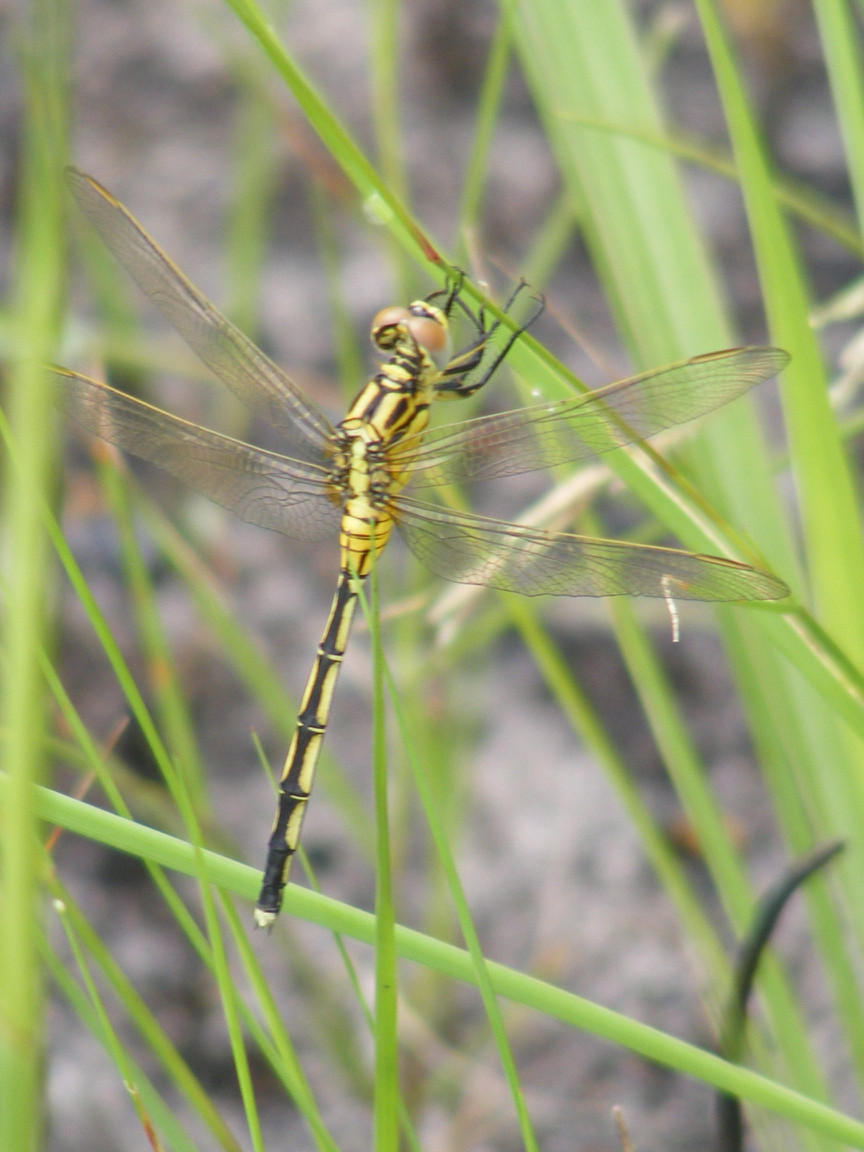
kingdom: Animalia
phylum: Arthropoda
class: Insecta
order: Odonata
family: Libellulidae
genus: Orthetrum
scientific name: Orthetrum icteromelas
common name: Spectacled skimmer
